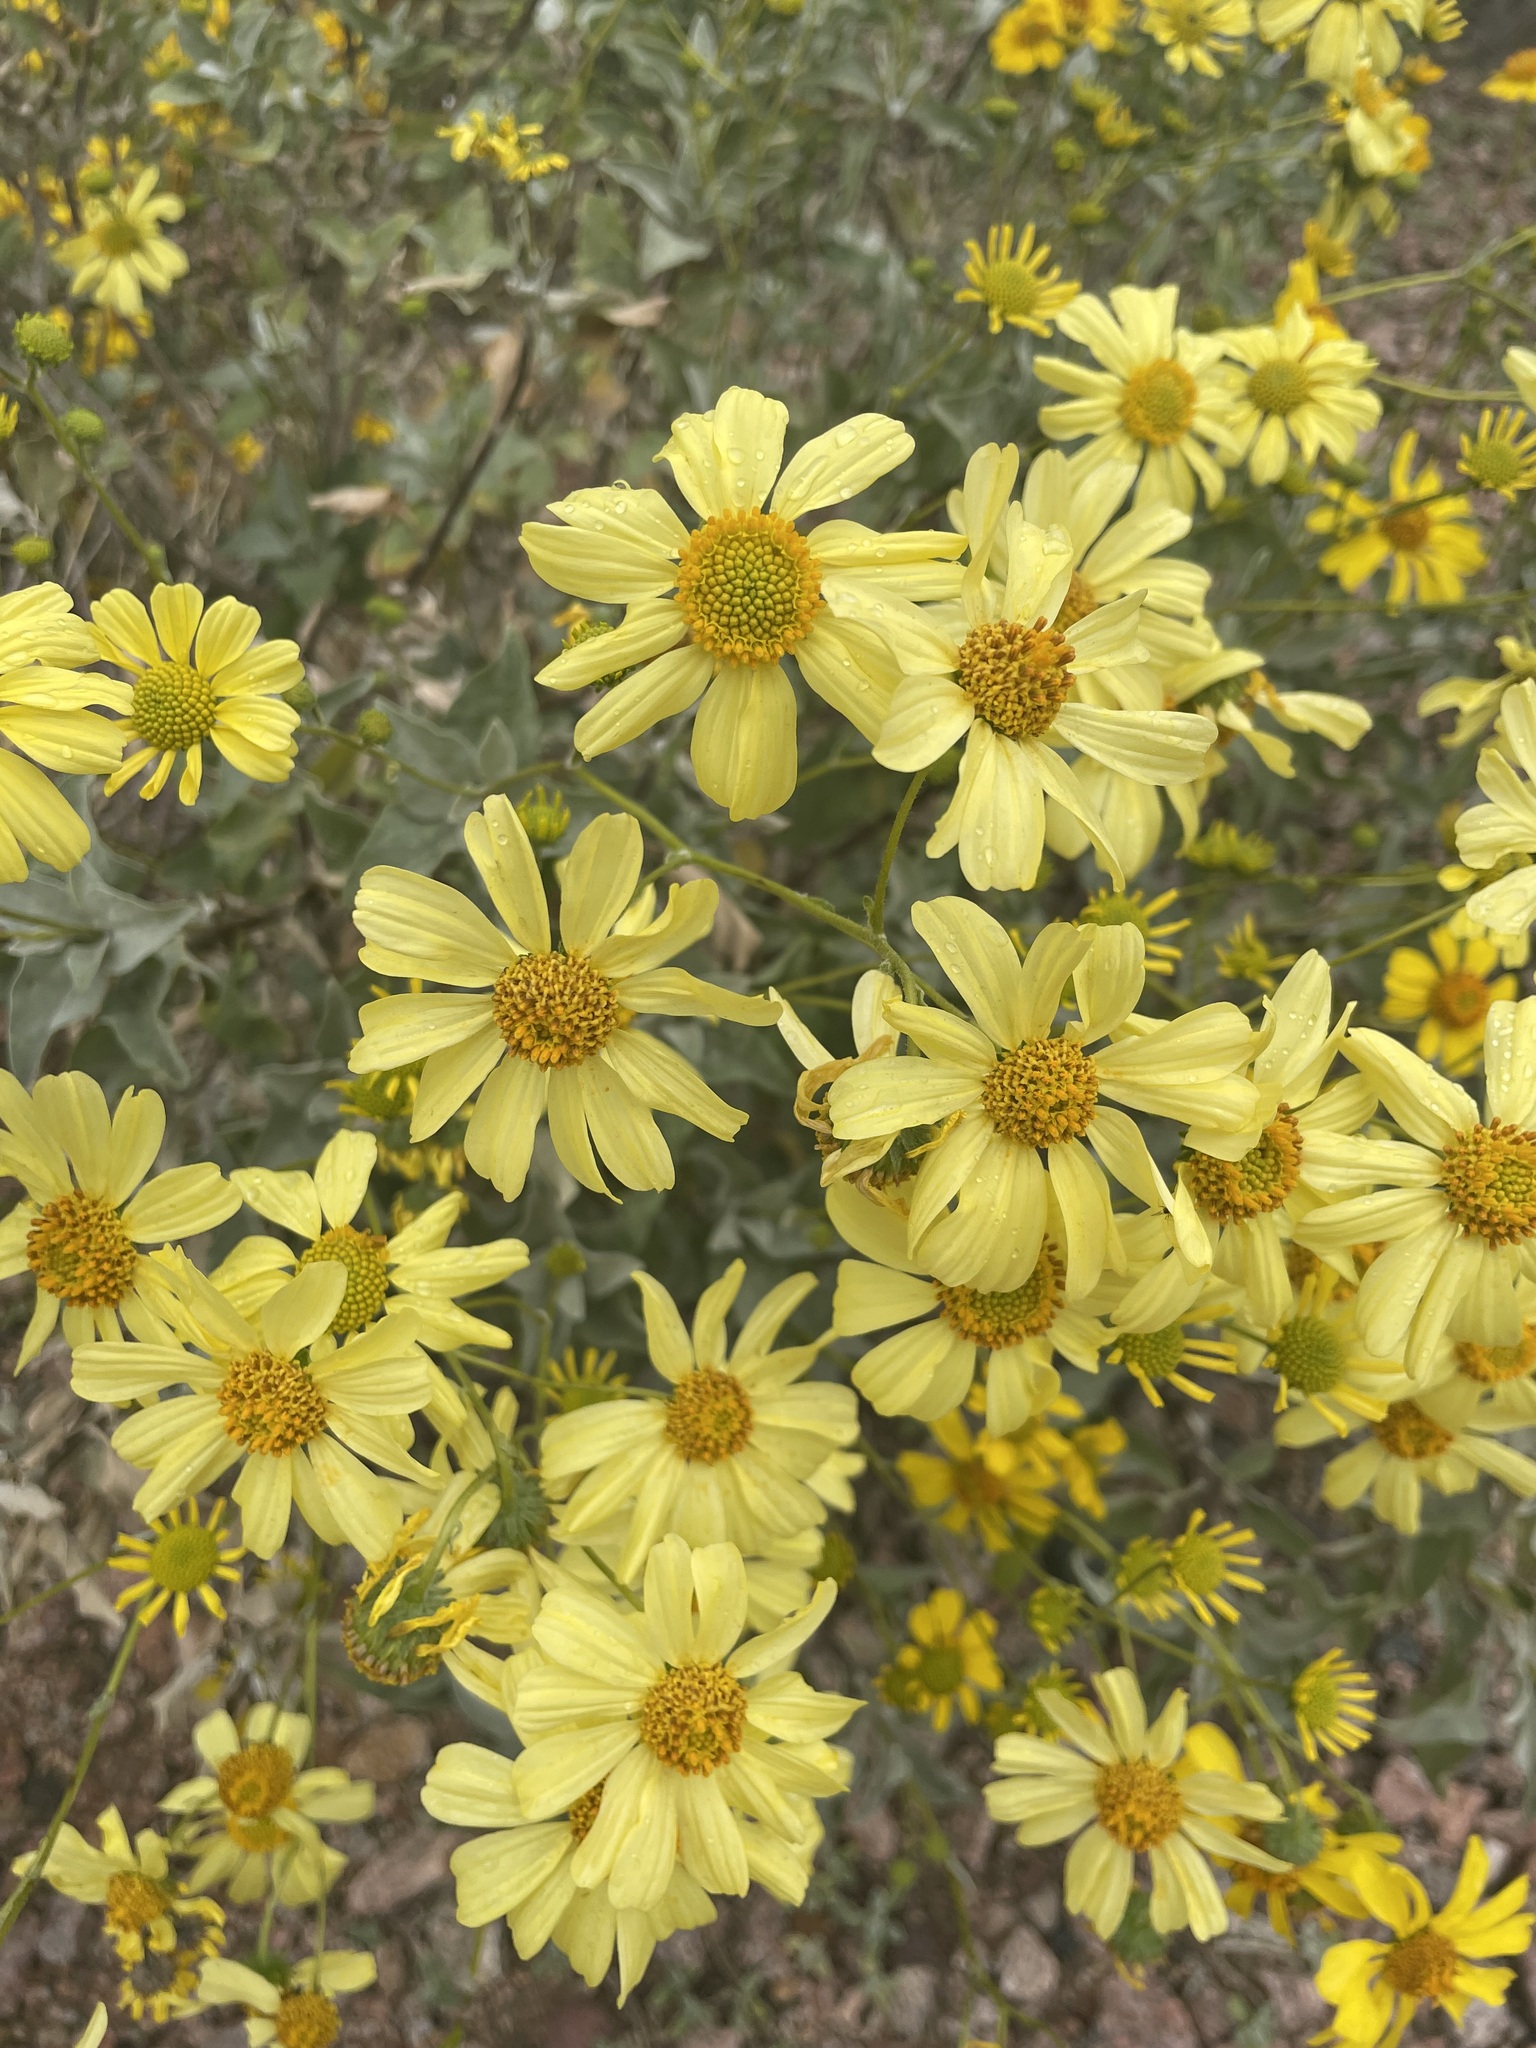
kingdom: Plantae
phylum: Tracheophyta
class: Magnoliopsida
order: Asterales
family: Asteraceae
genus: Encelia
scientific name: Encelia farinosa
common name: Brittlebush
